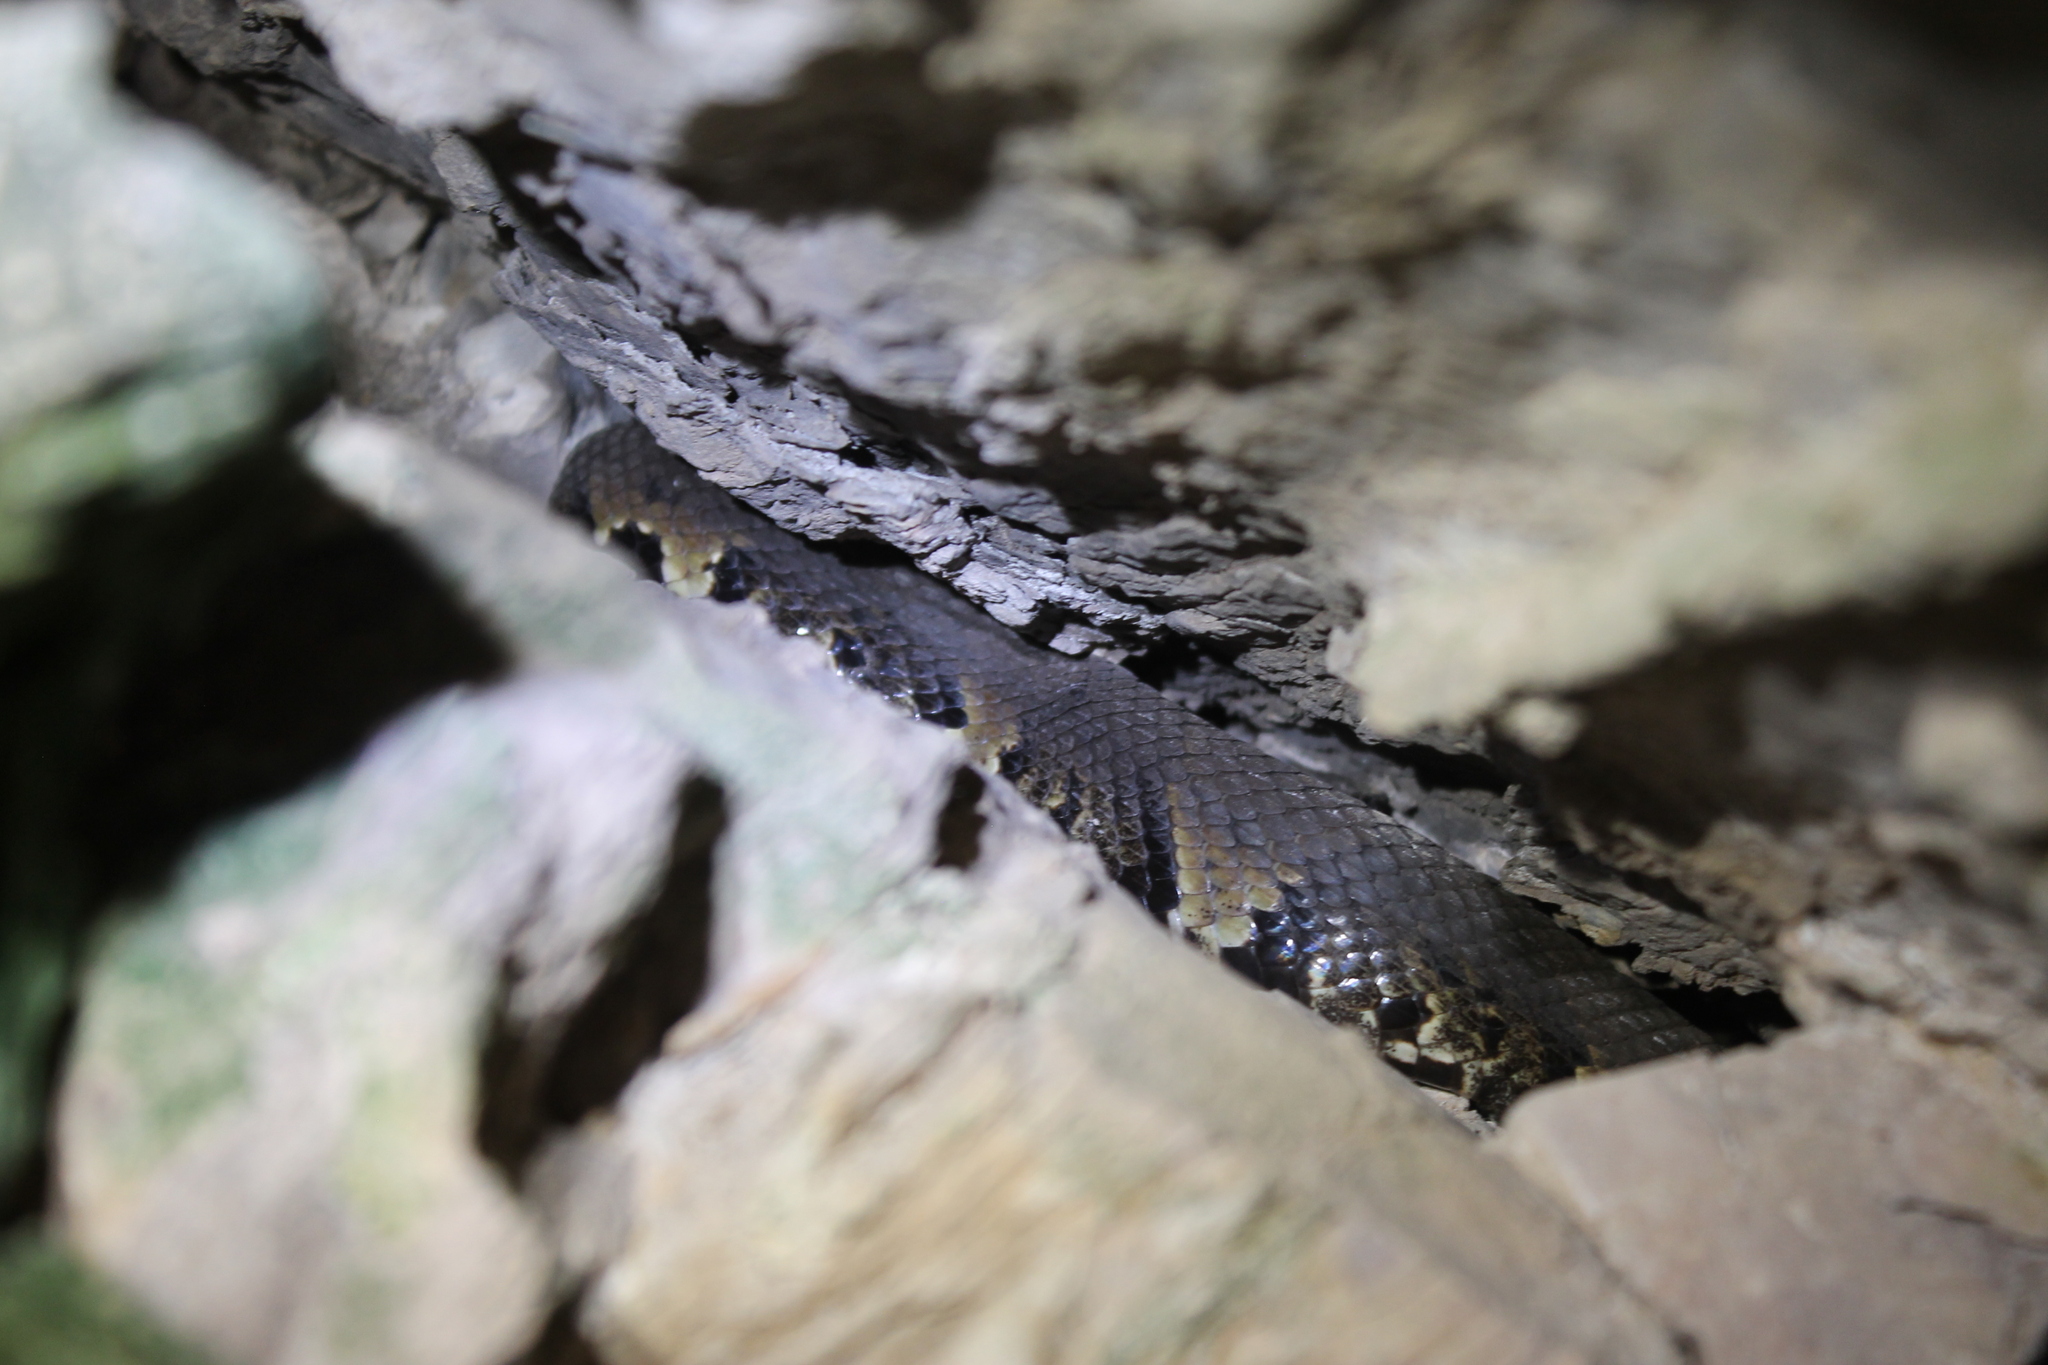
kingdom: Animalia
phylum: Chordata
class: Squamata
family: Viperidae
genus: Agkistrodon
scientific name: Agkistrodon piscivorus
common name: Cottonmouth
